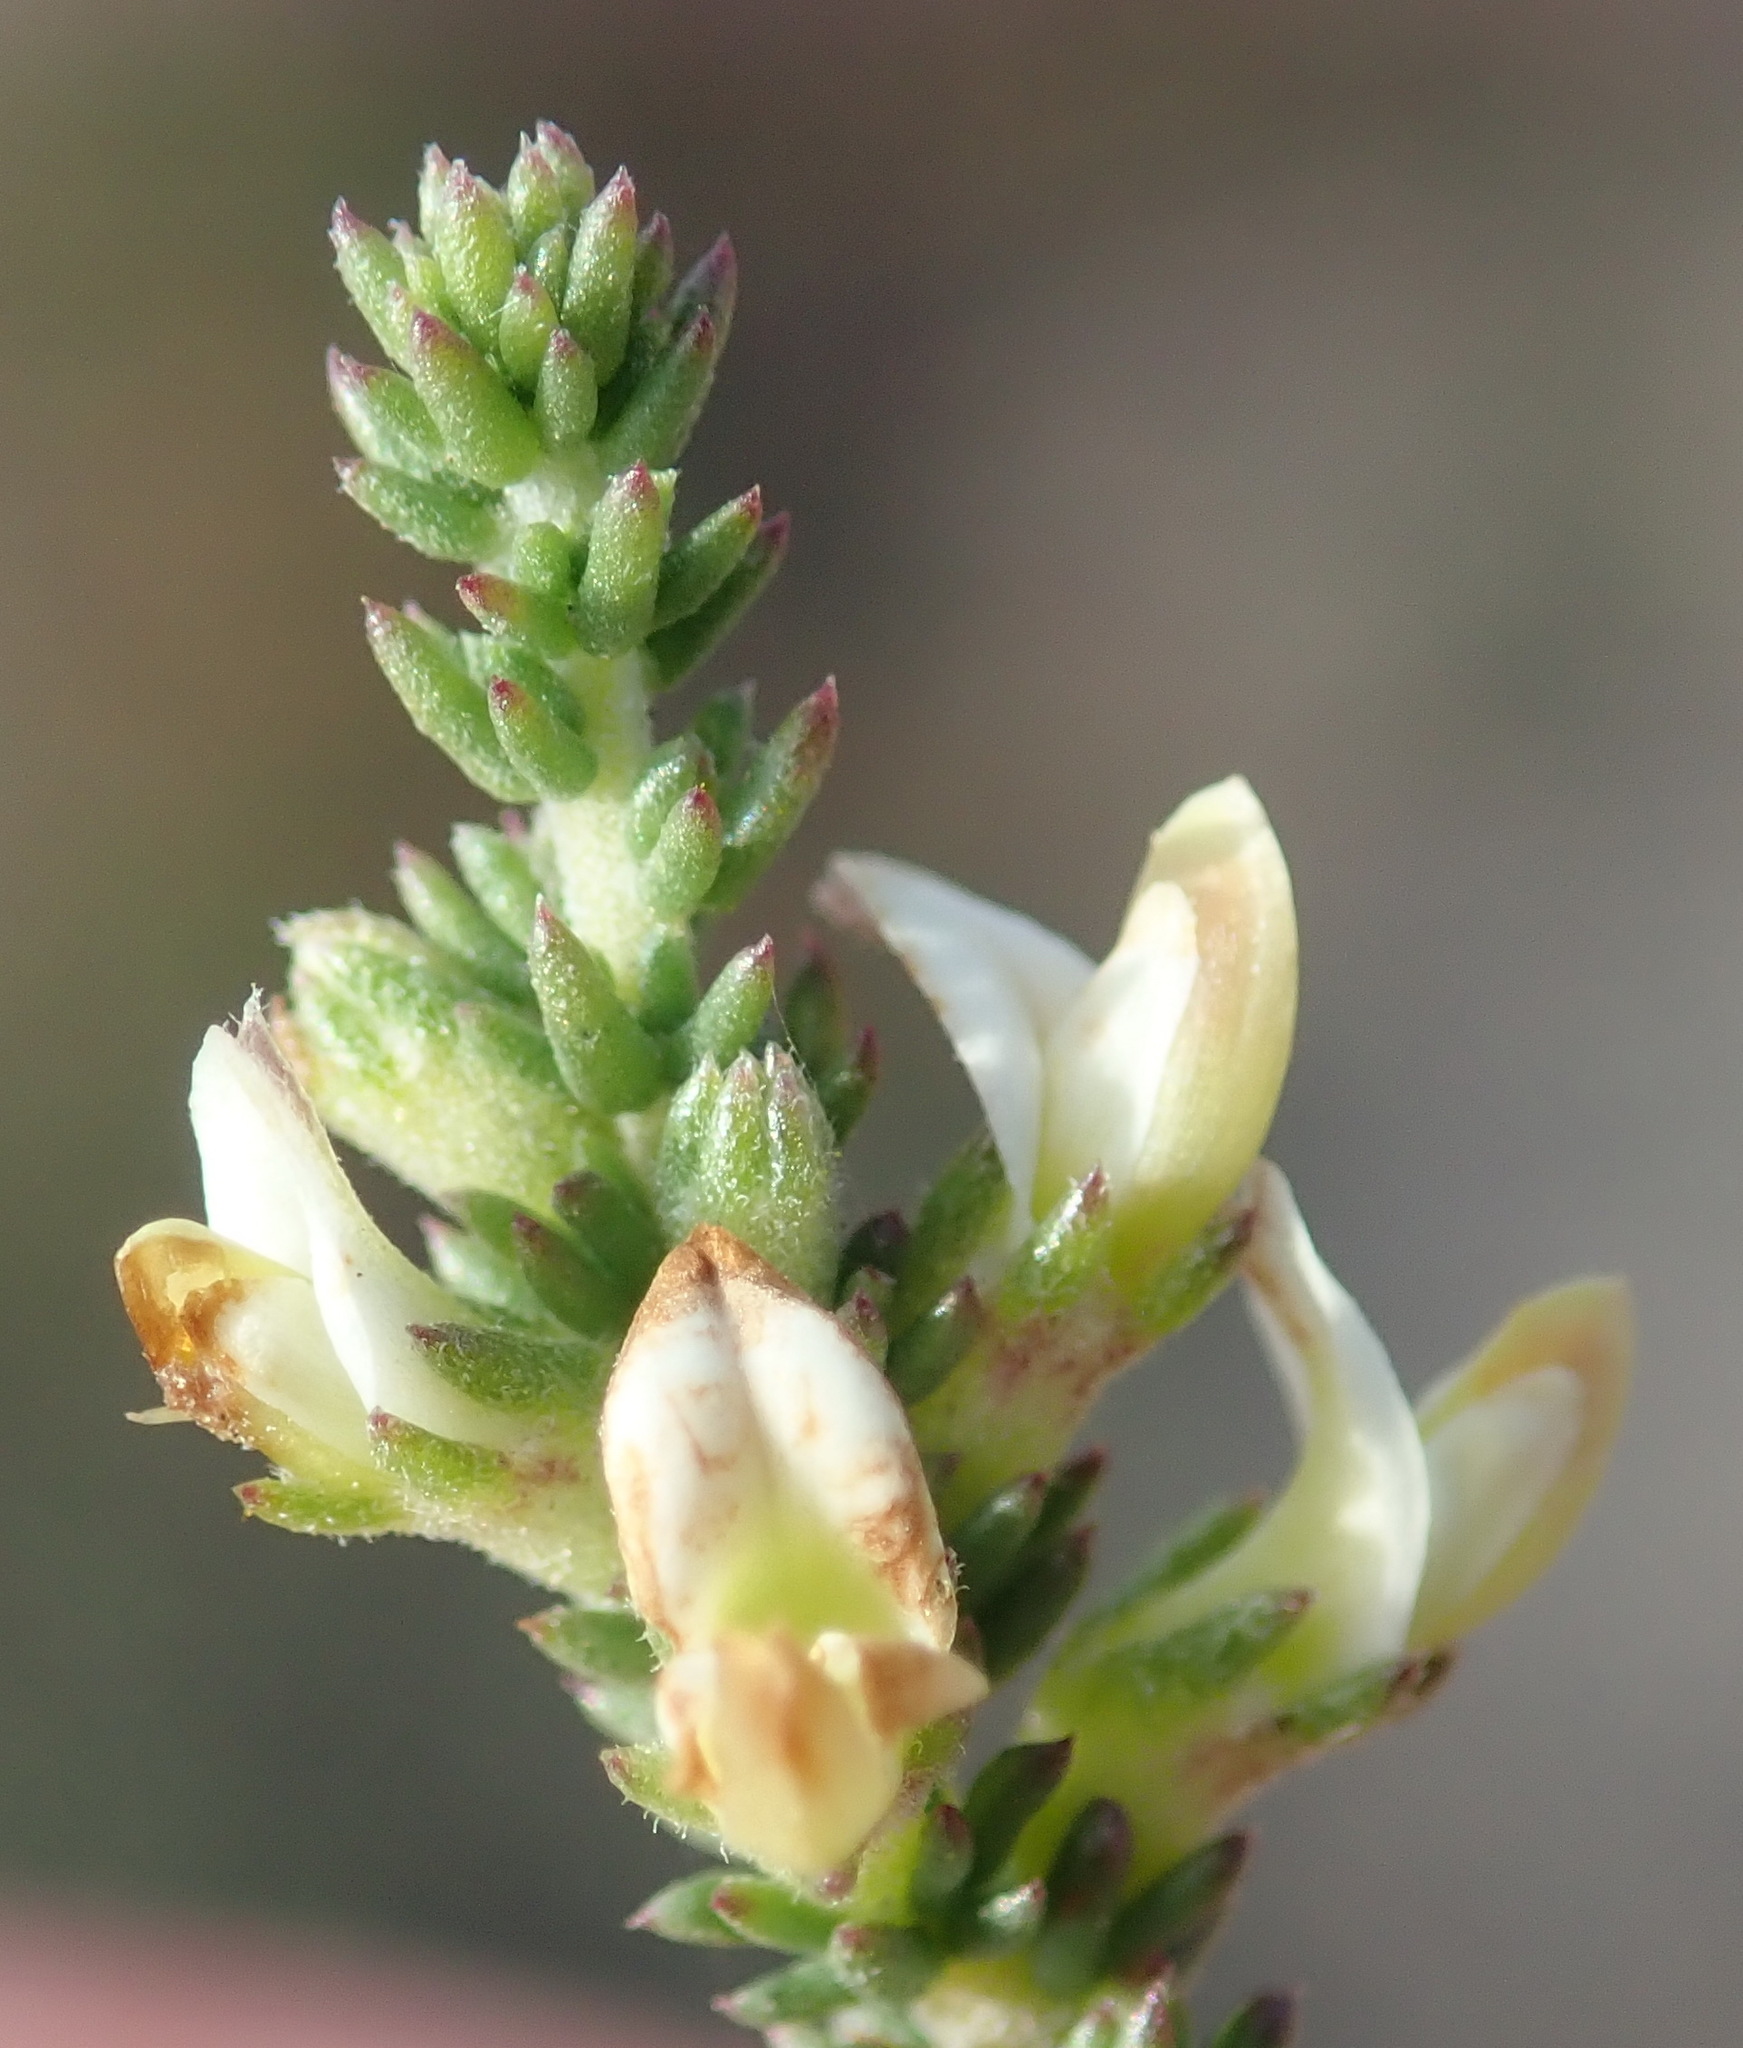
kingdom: Plantae
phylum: Tracheophyta
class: Magnoliopsida
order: Fabales
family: Fabaceae
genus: Aspalathus
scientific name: Aspalathus hispida
